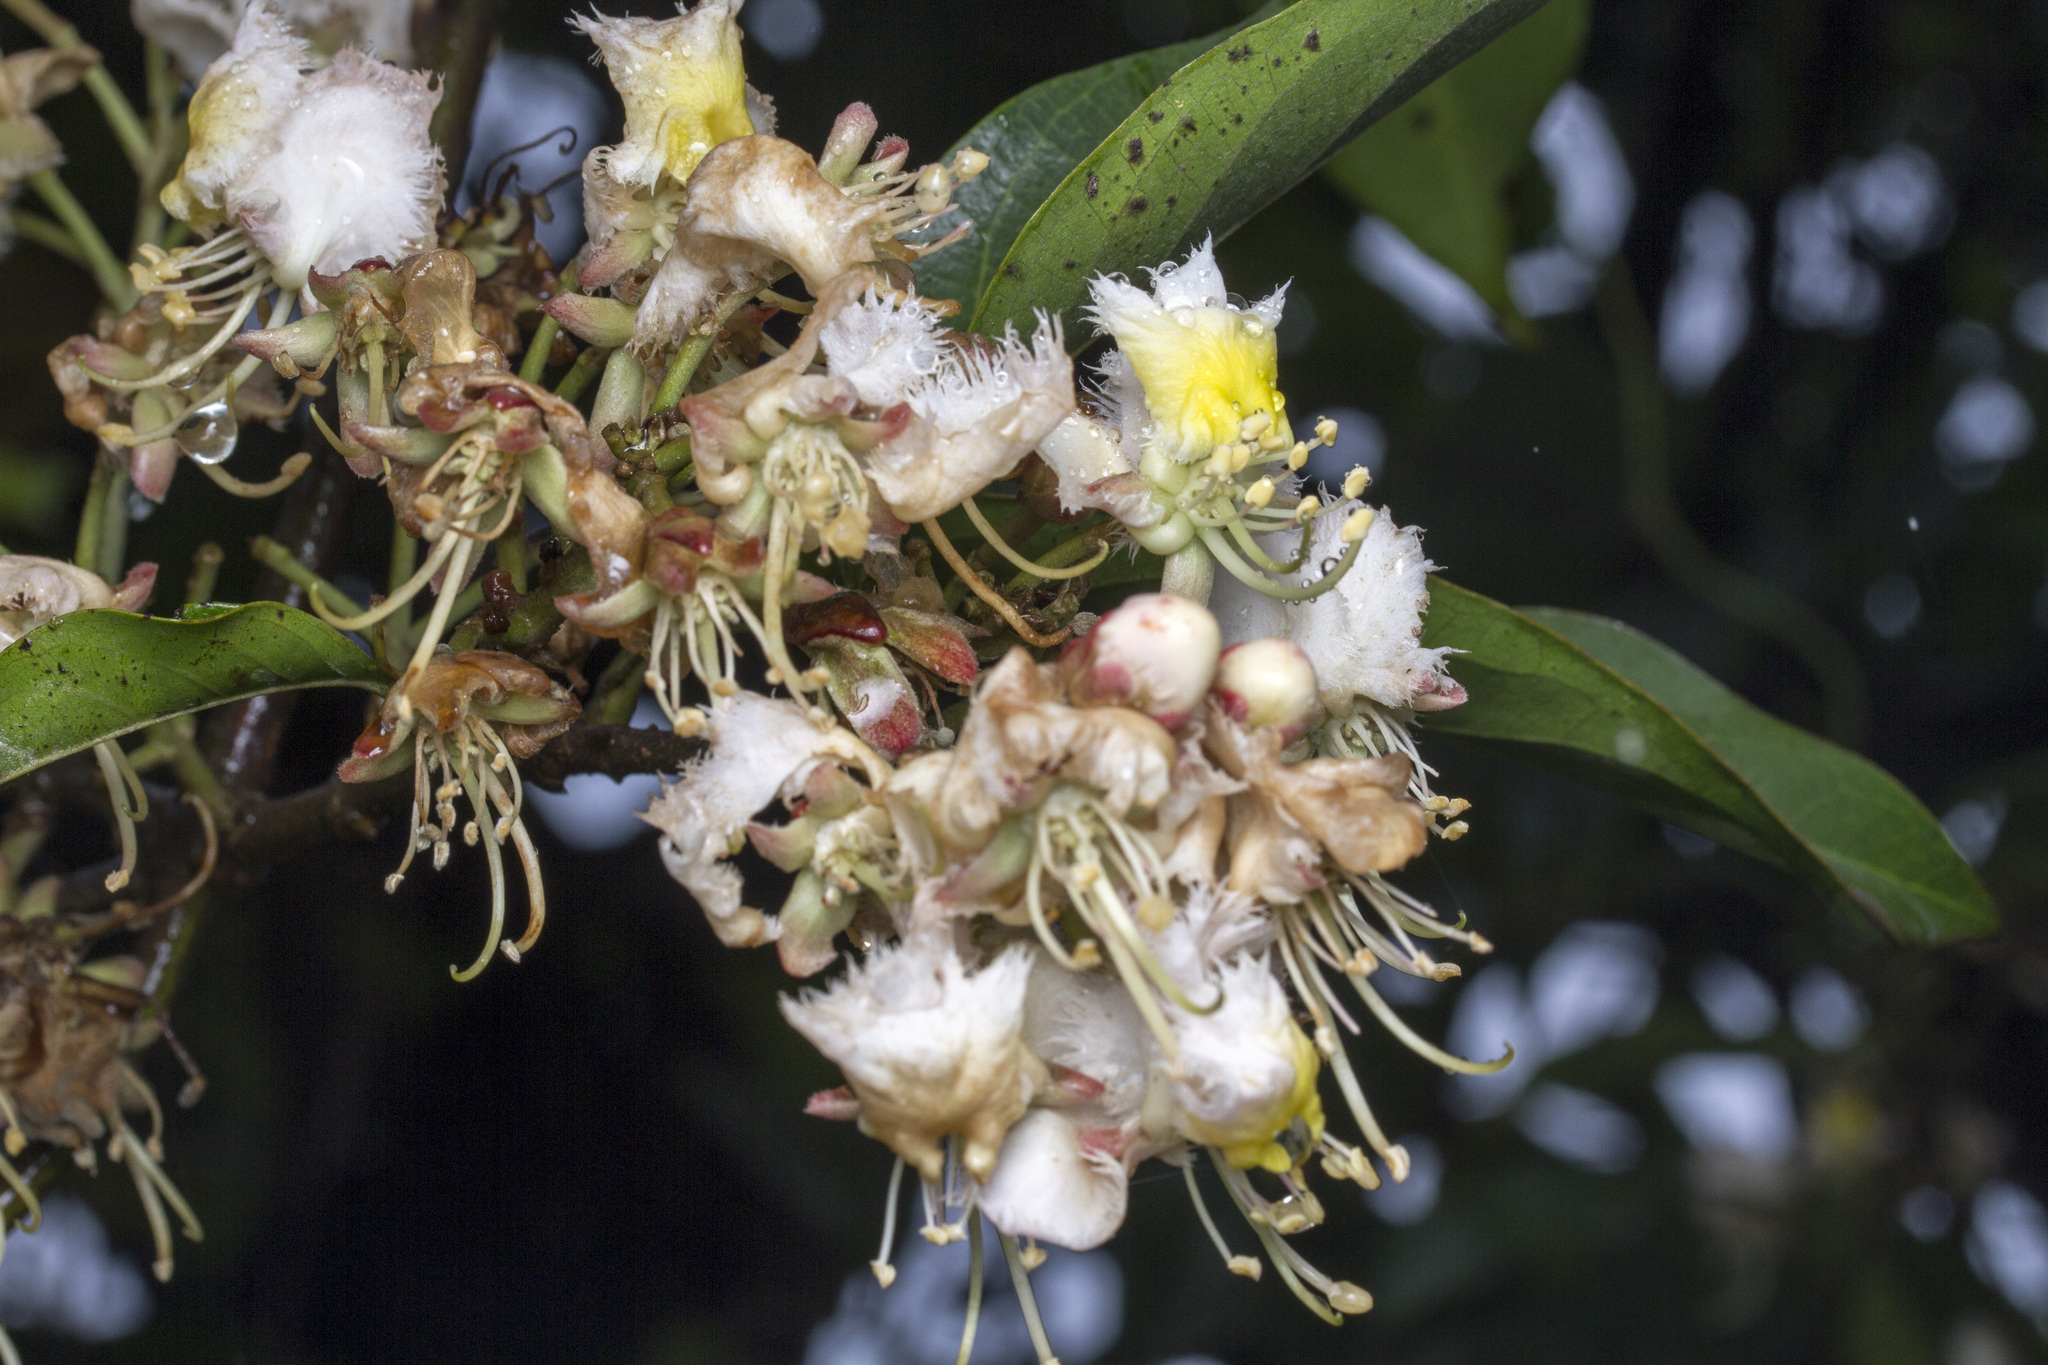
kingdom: Plantae
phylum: Tracheophyta
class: Magnoliopsida
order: Malpighiales
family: Malpighiaceae
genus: Hiptage
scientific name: Hiptage benghalensis
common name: Hiptage
